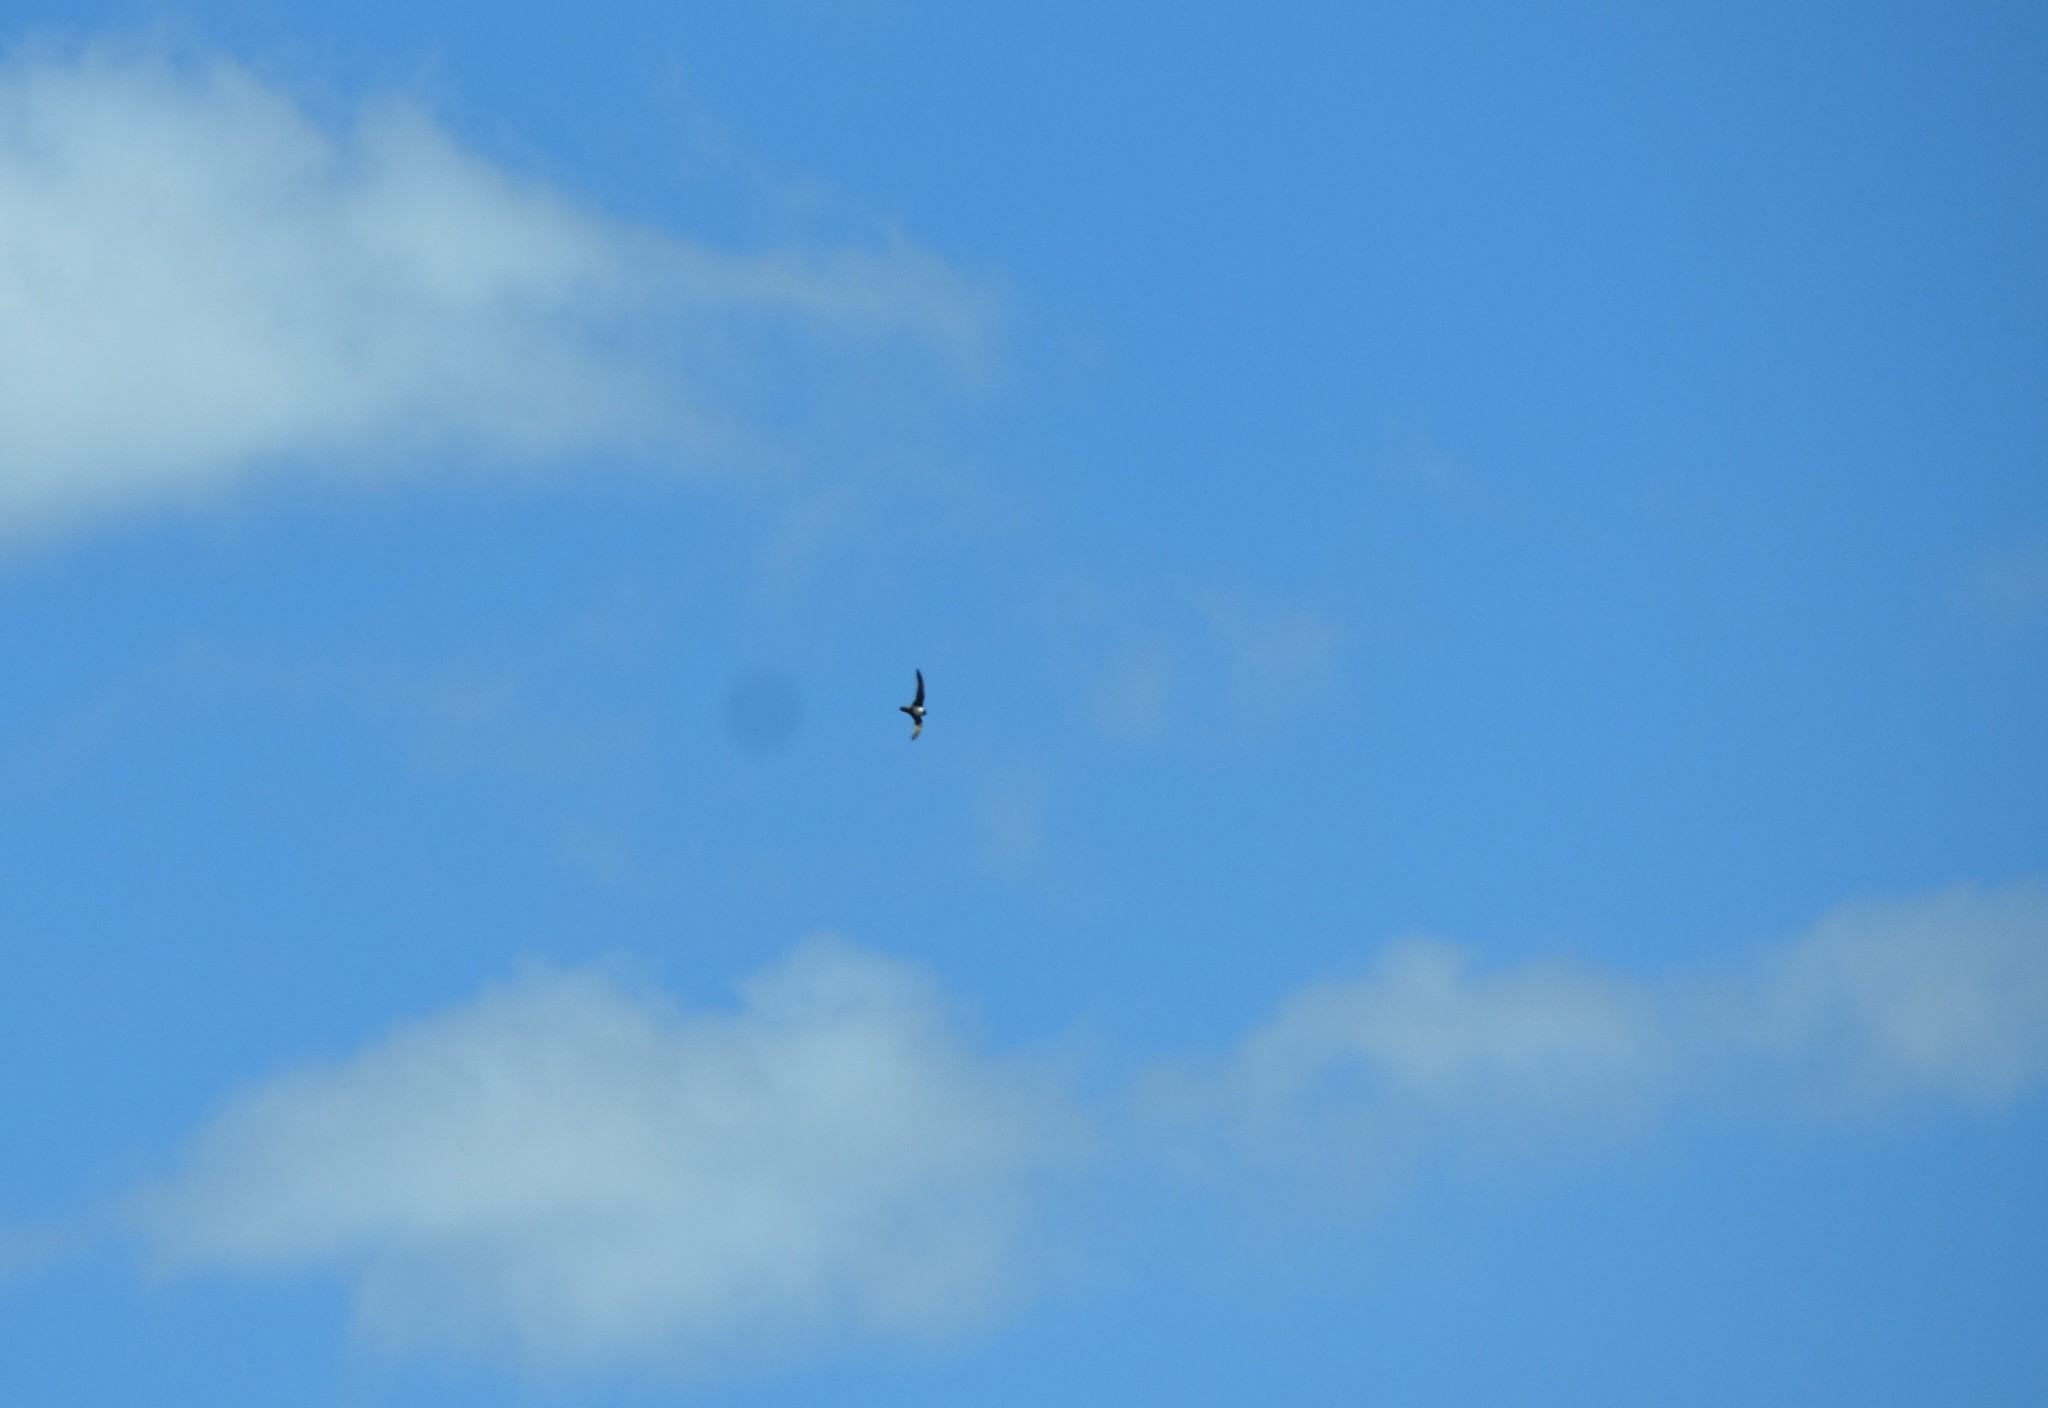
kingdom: Animalia
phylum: Chordata
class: Aves
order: Apodiformes
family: Apodidae
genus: Tachymarptis
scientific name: Tachymarptis melba
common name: Alpine swift
